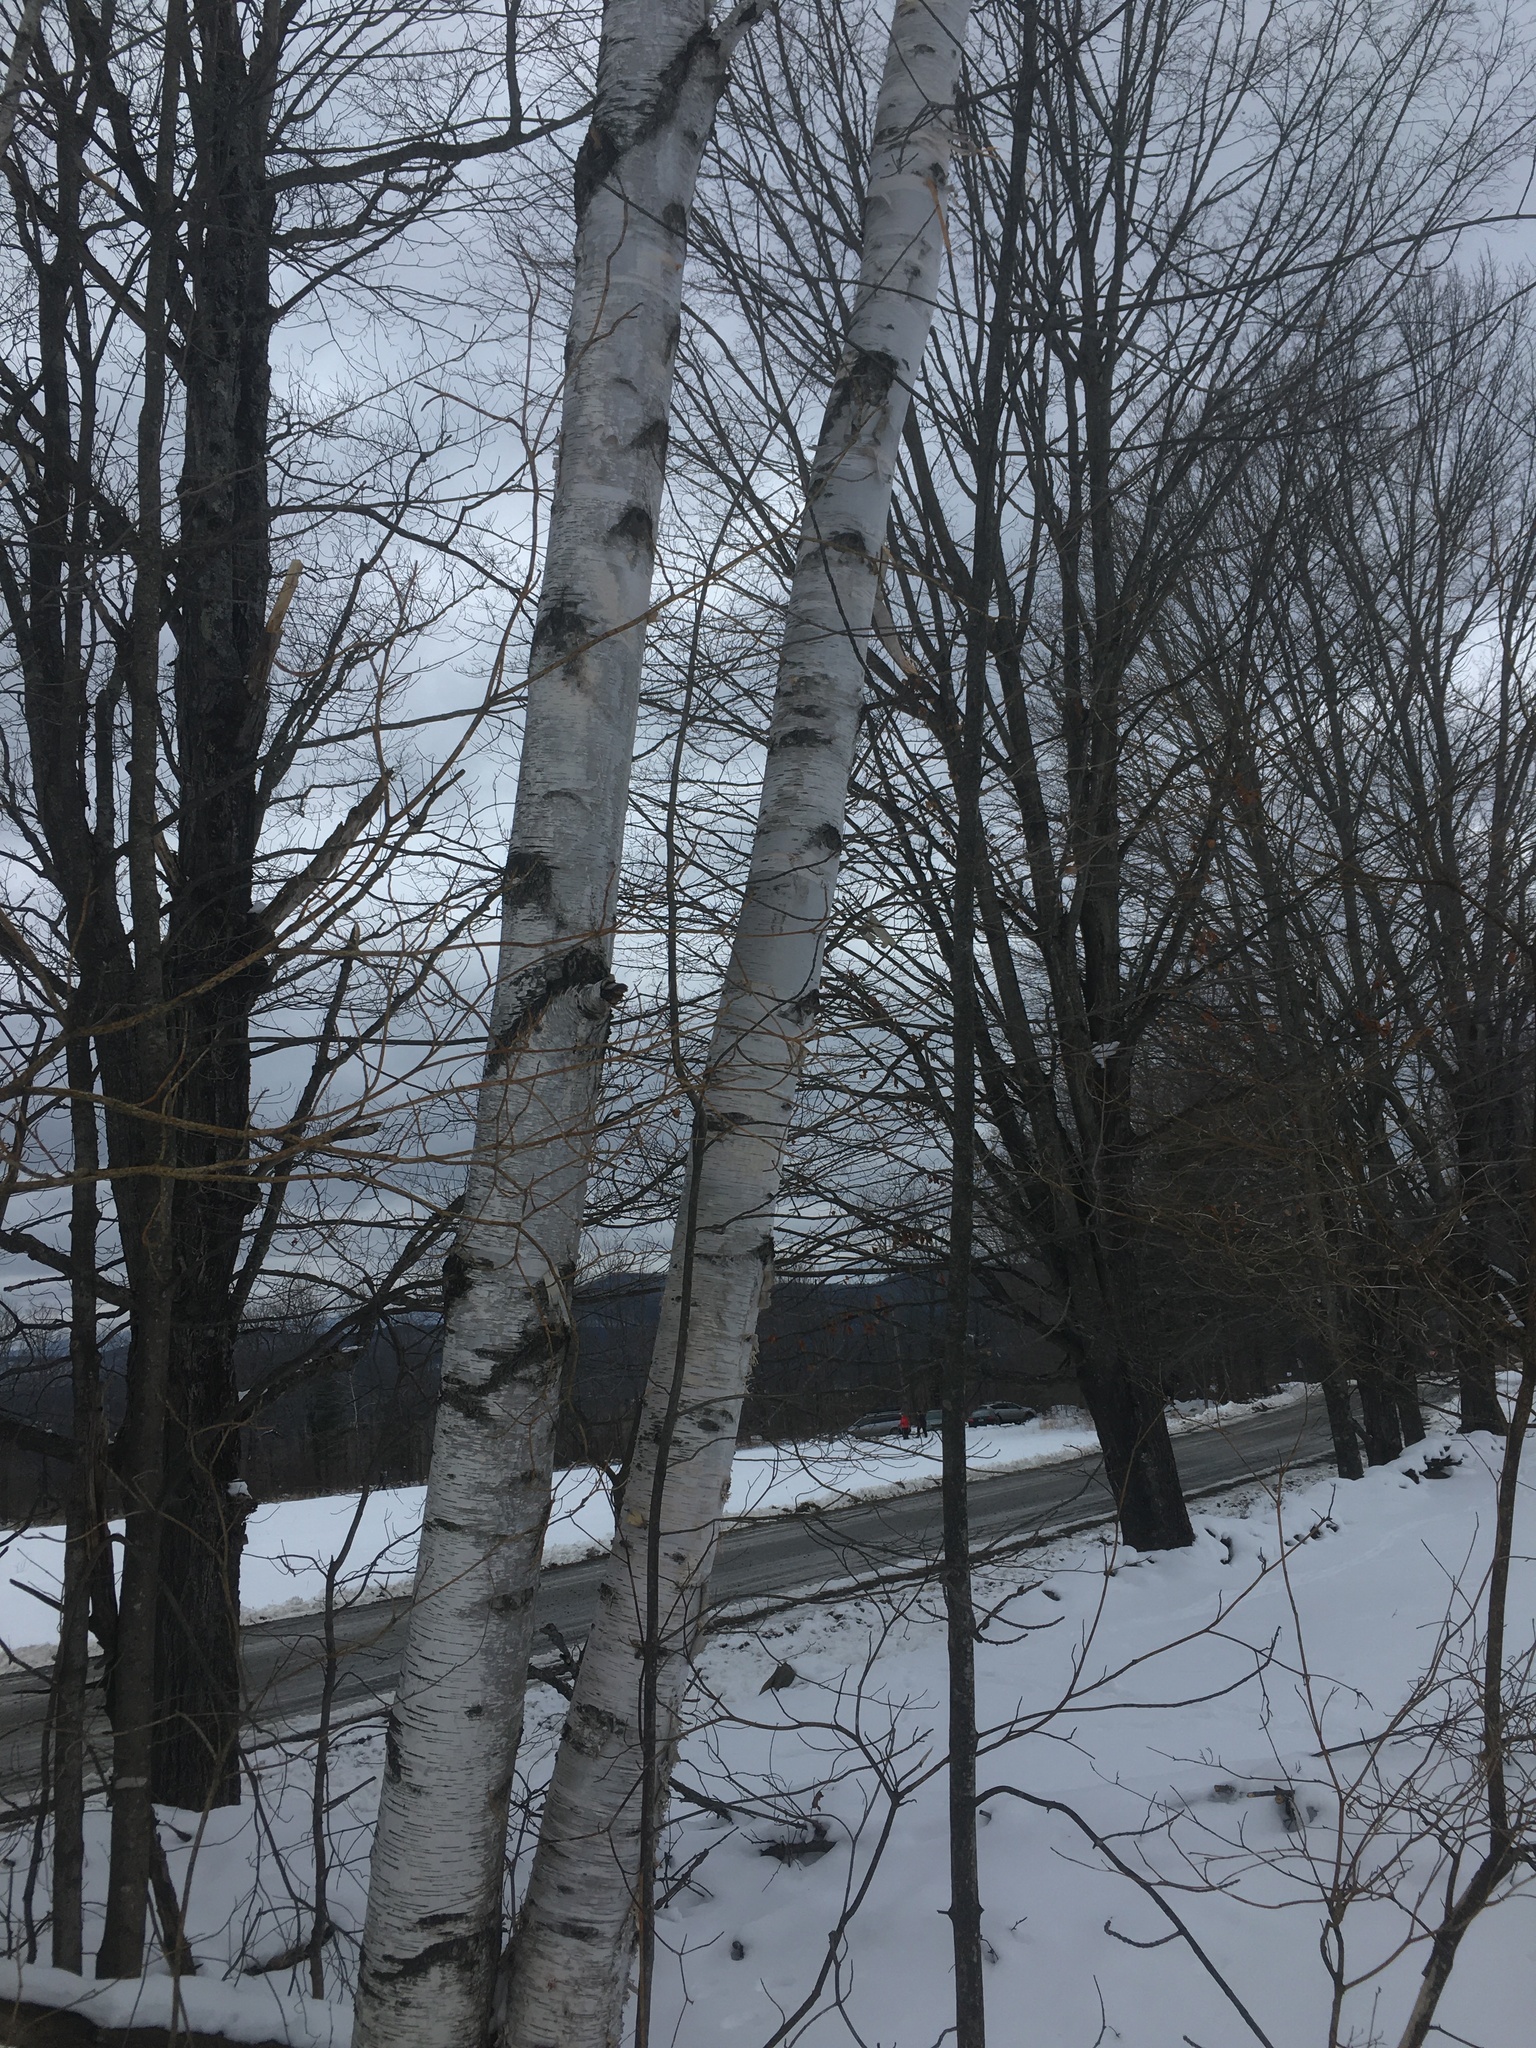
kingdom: Plantae
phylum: Tracheophyta
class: Magnoliopsida
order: Fagales
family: Betulaceae
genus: Betula
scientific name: Betula papyrifera
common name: Paper birch
